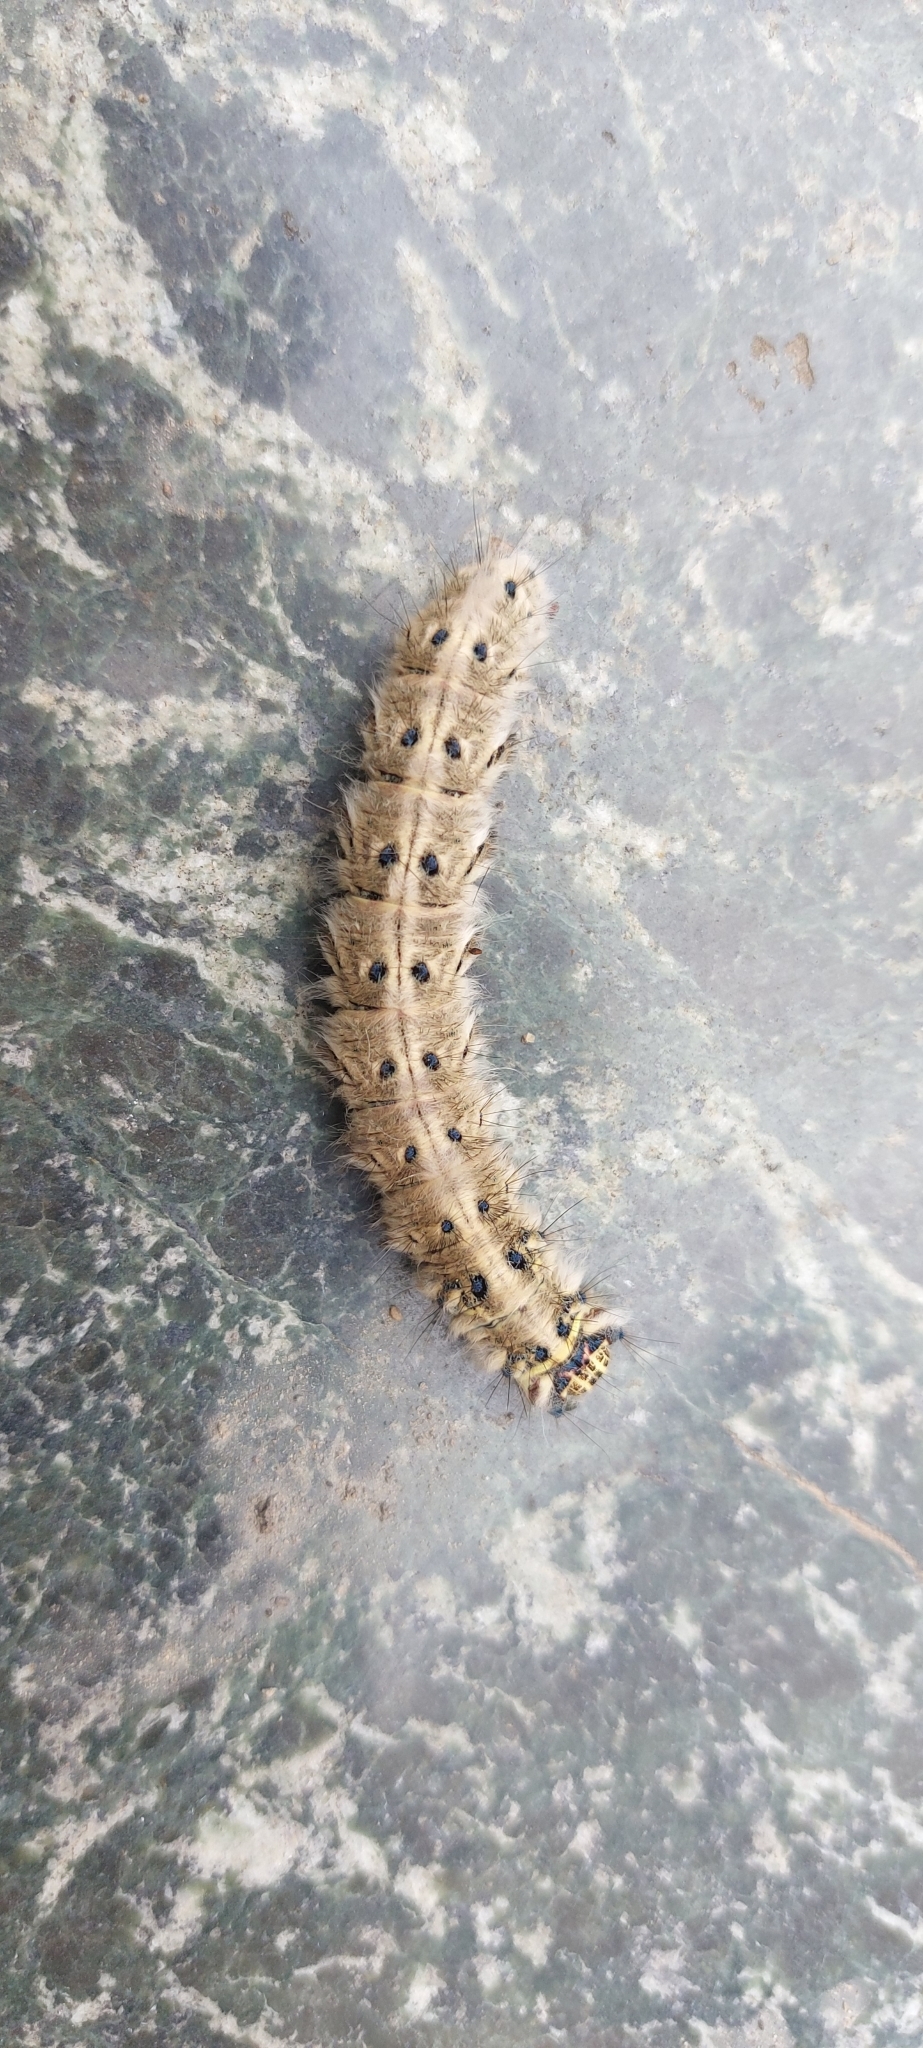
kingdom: Animalia
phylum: Arthropoda
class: Insecta
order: Lepidoptera
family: Lasiocampidae
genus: Trabala
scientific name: Trabala vishnou
